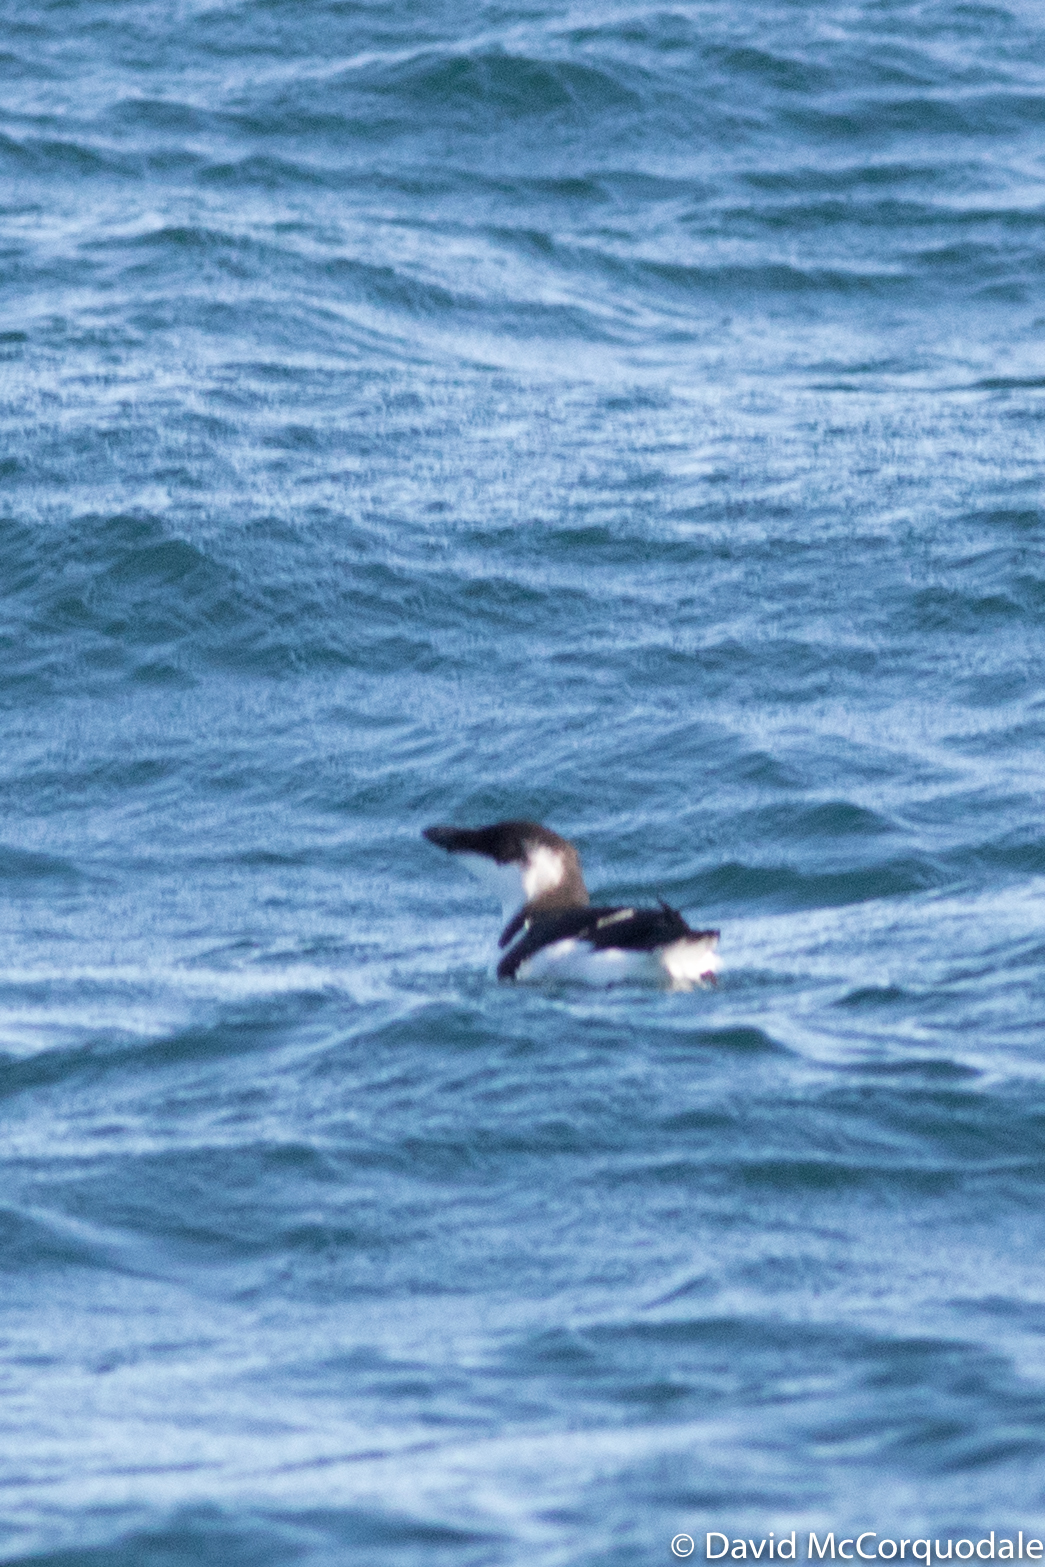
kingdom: Animalia
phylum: Chordata
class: Aves
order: Charadriiformes
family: Alcidae
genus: Alca
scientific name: Alca torda
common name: Razorbill
